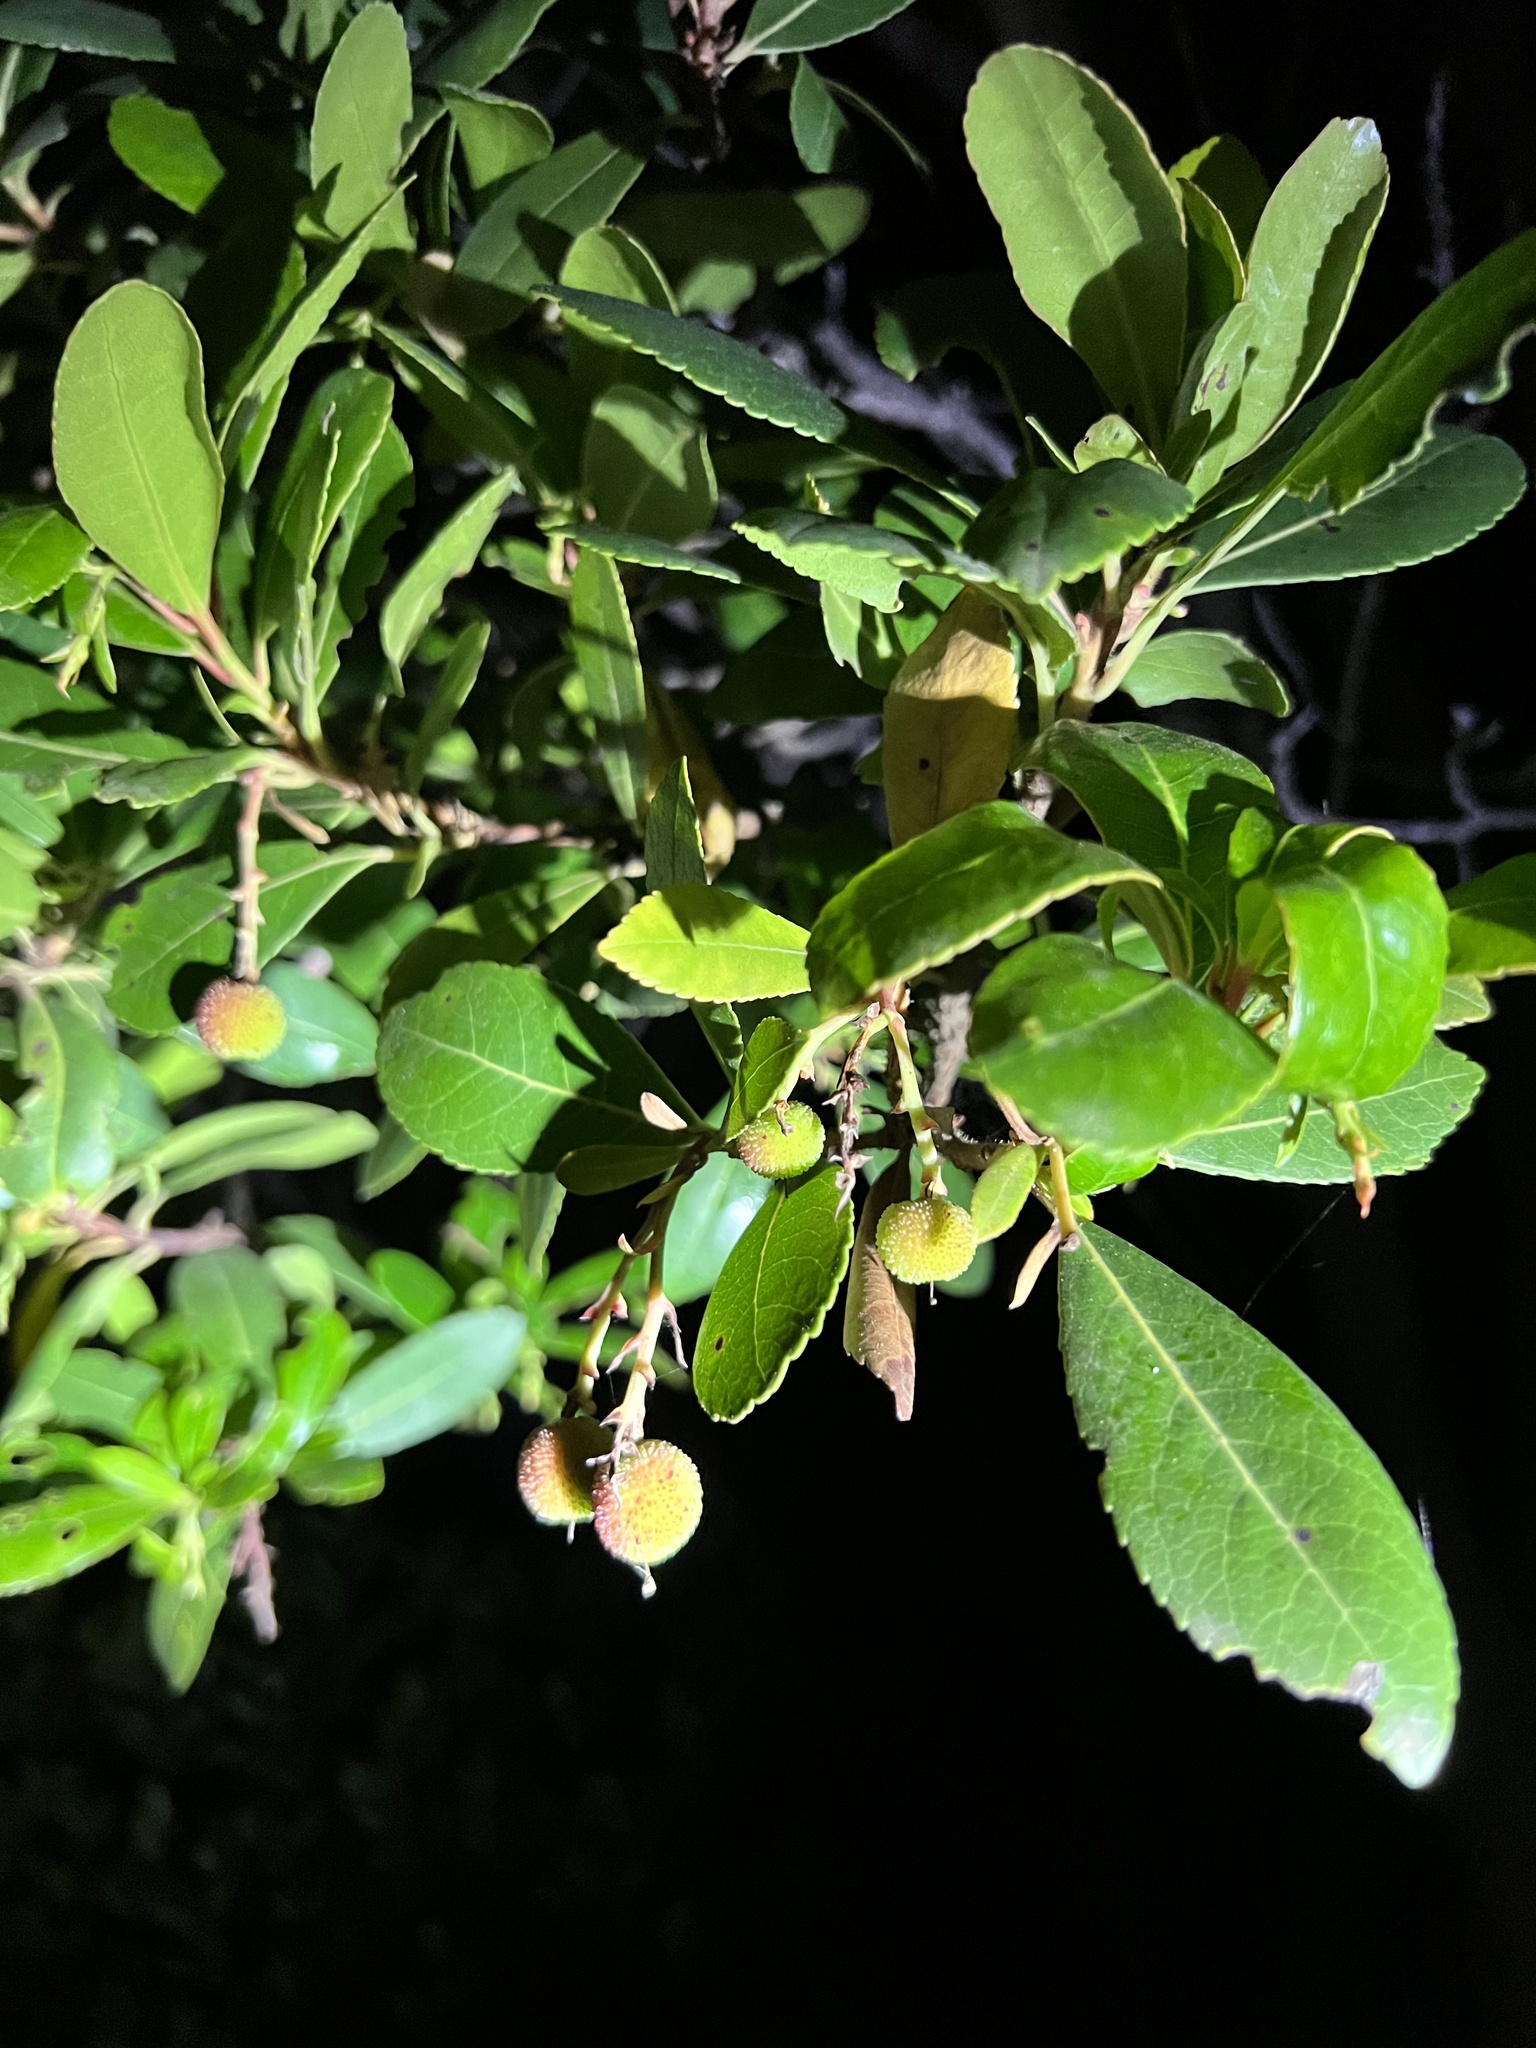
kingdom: Plantae
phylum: Tracheophyta
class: Magnoliopsida
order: Ericales
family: Ericaceae
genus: Arbutus
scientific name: Arbutus unedo
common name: Strawberry-tree
